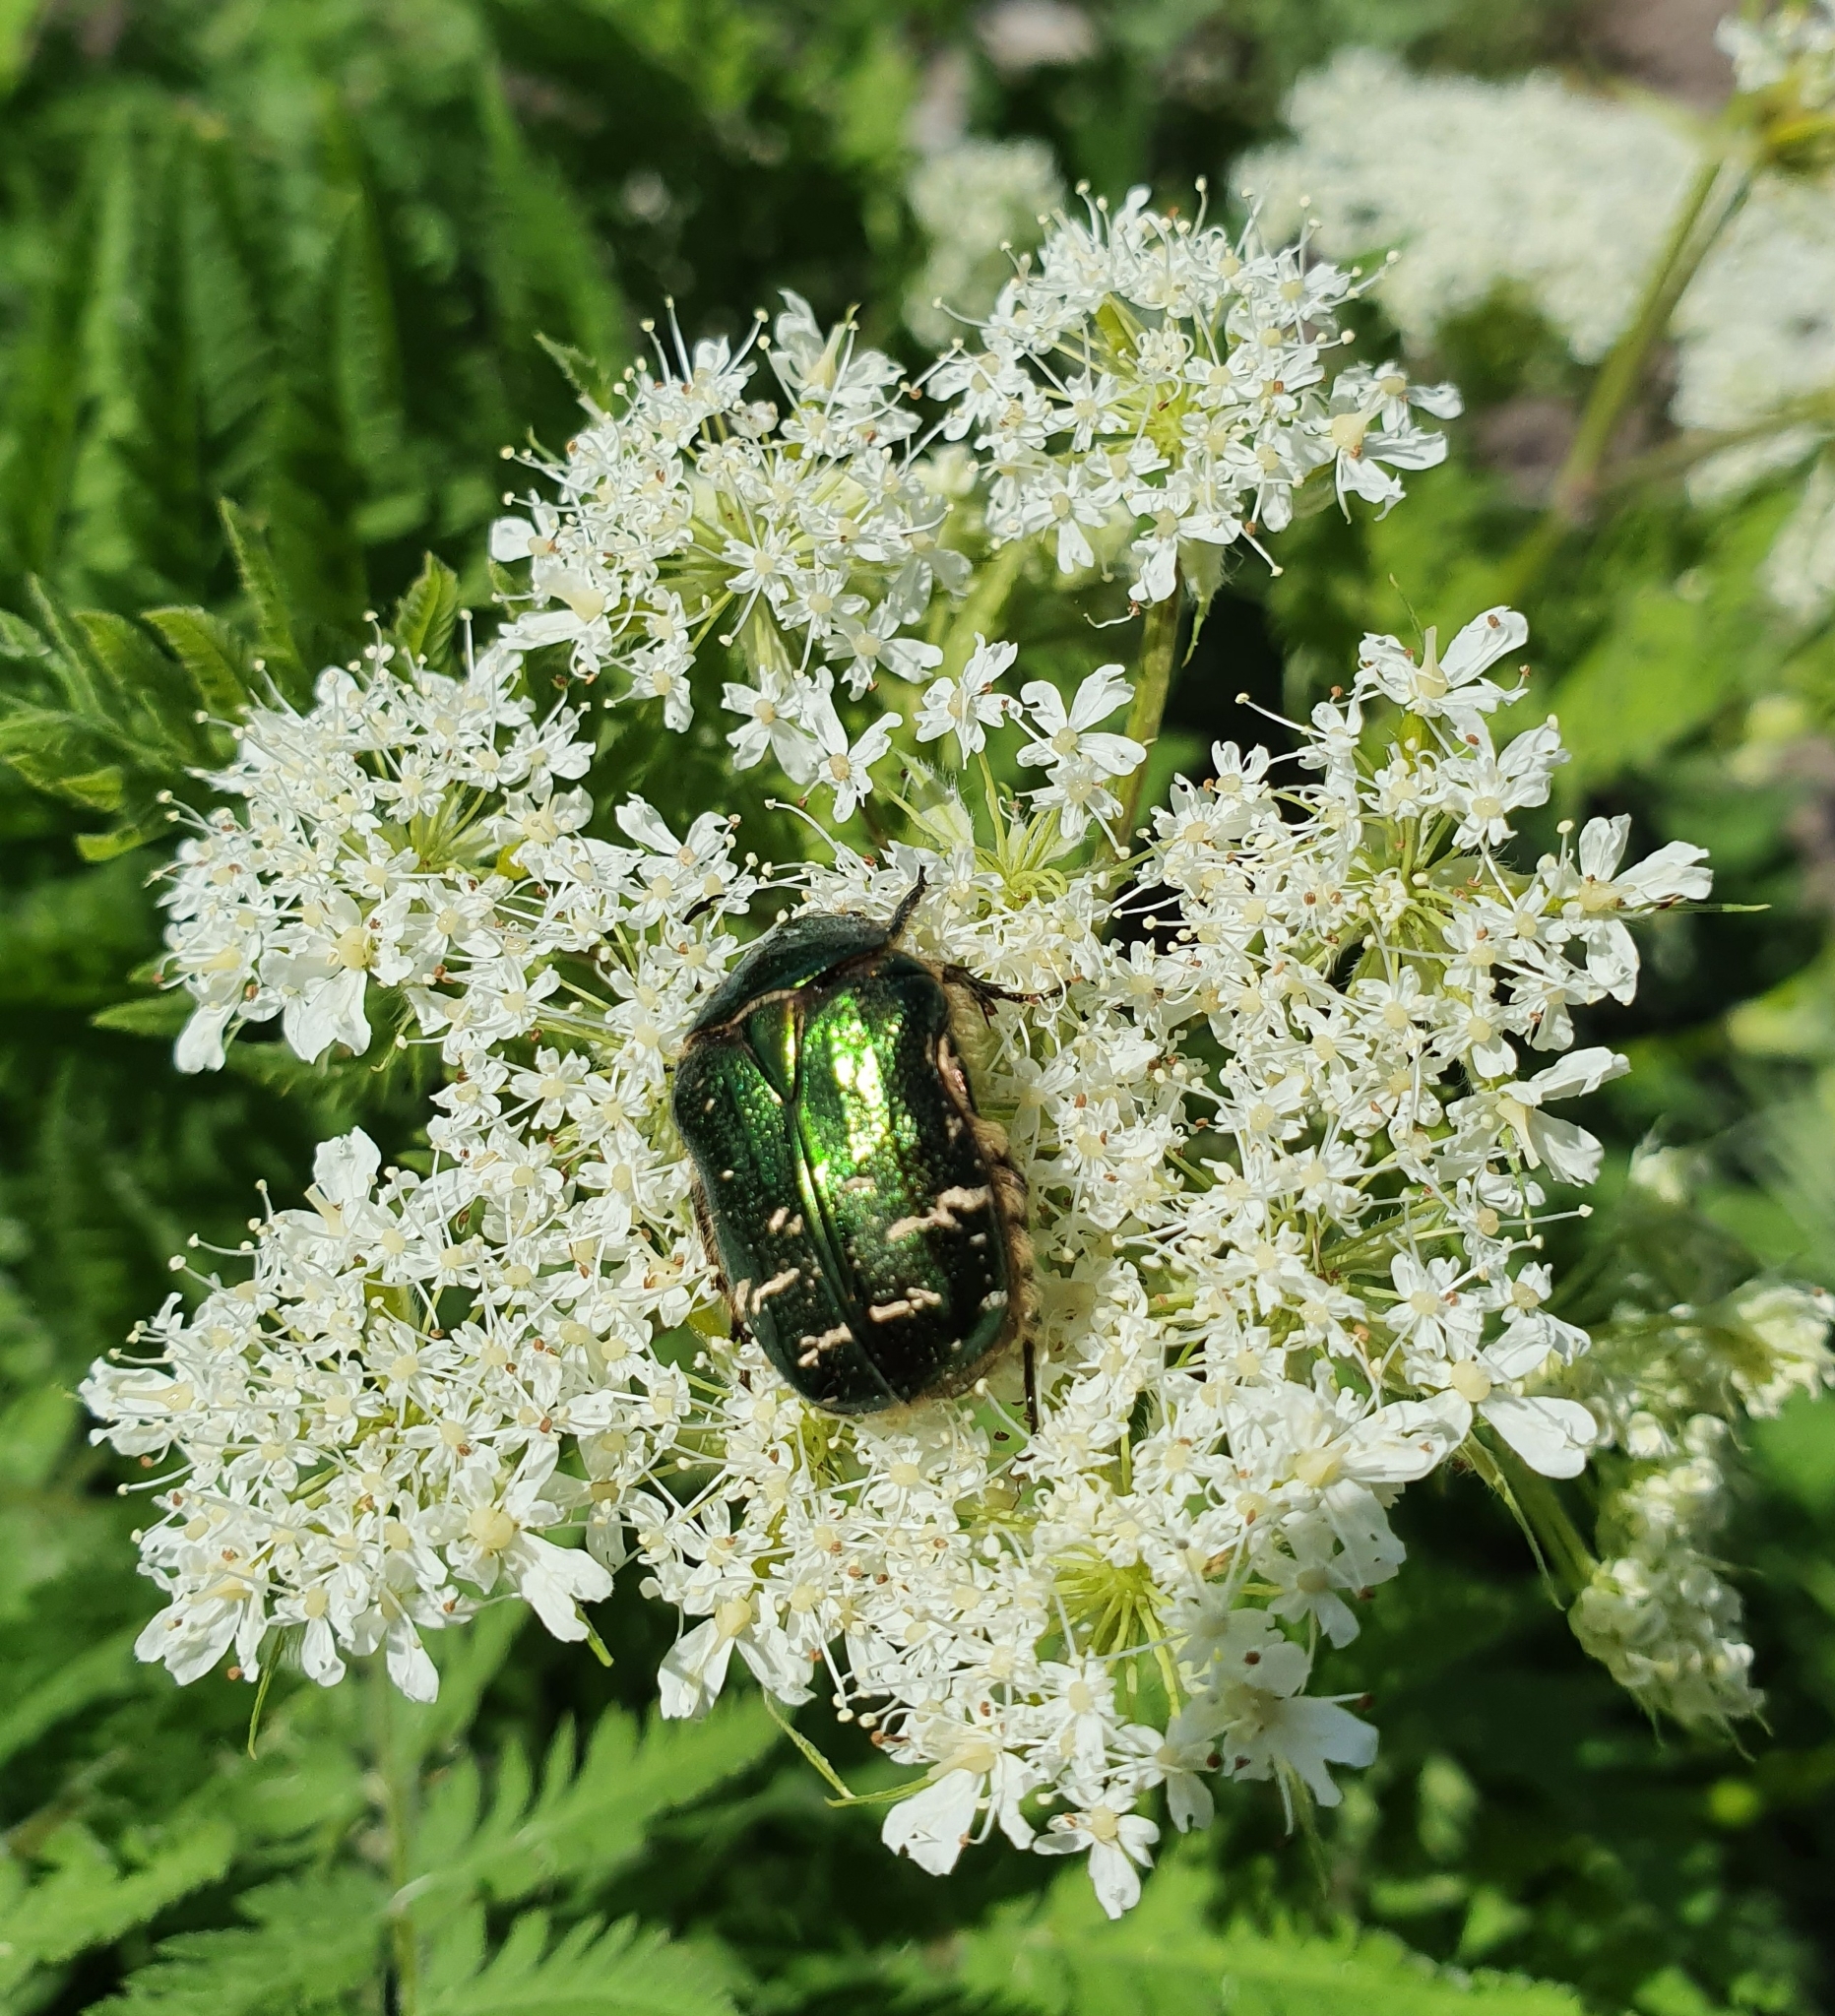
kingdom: Animalia
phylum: Arthropoda
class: Insecta
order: Coleoptera
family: Scarabaeidae
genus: Cetonia
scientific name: Cetonia aurata
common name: Rose chafer
